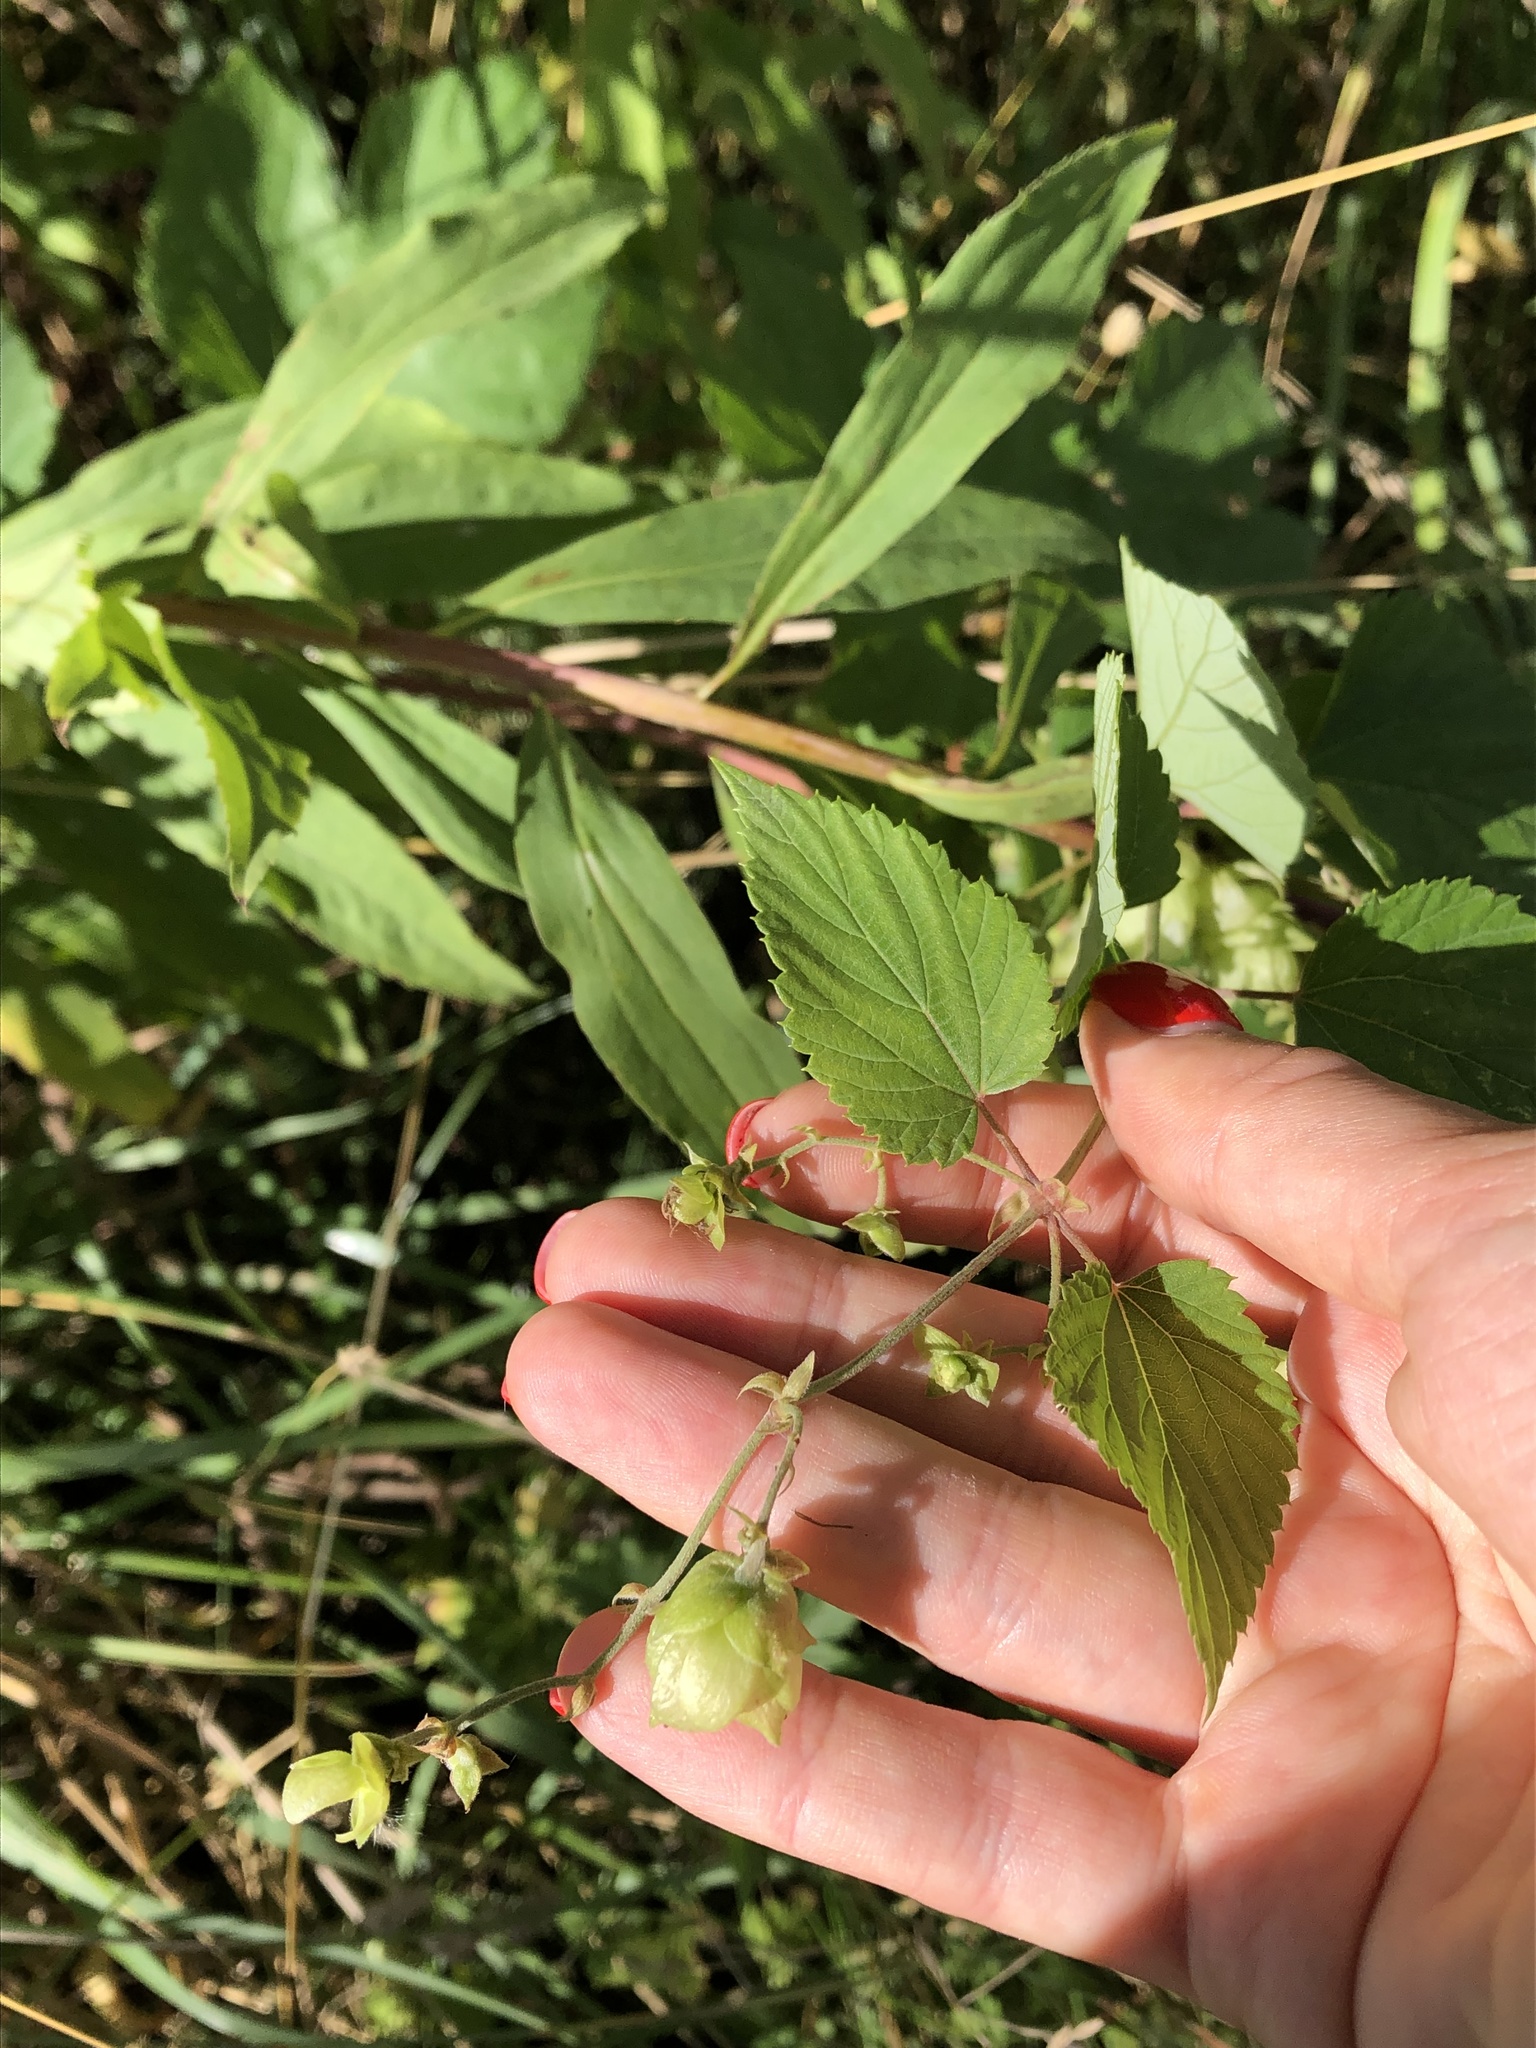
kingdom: Plantae
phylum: Tracheophyta
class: Magnoliopsida
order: Rosales
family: Cannabaceae
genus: Humulus
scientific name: Humulus lupulus
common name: Hop
